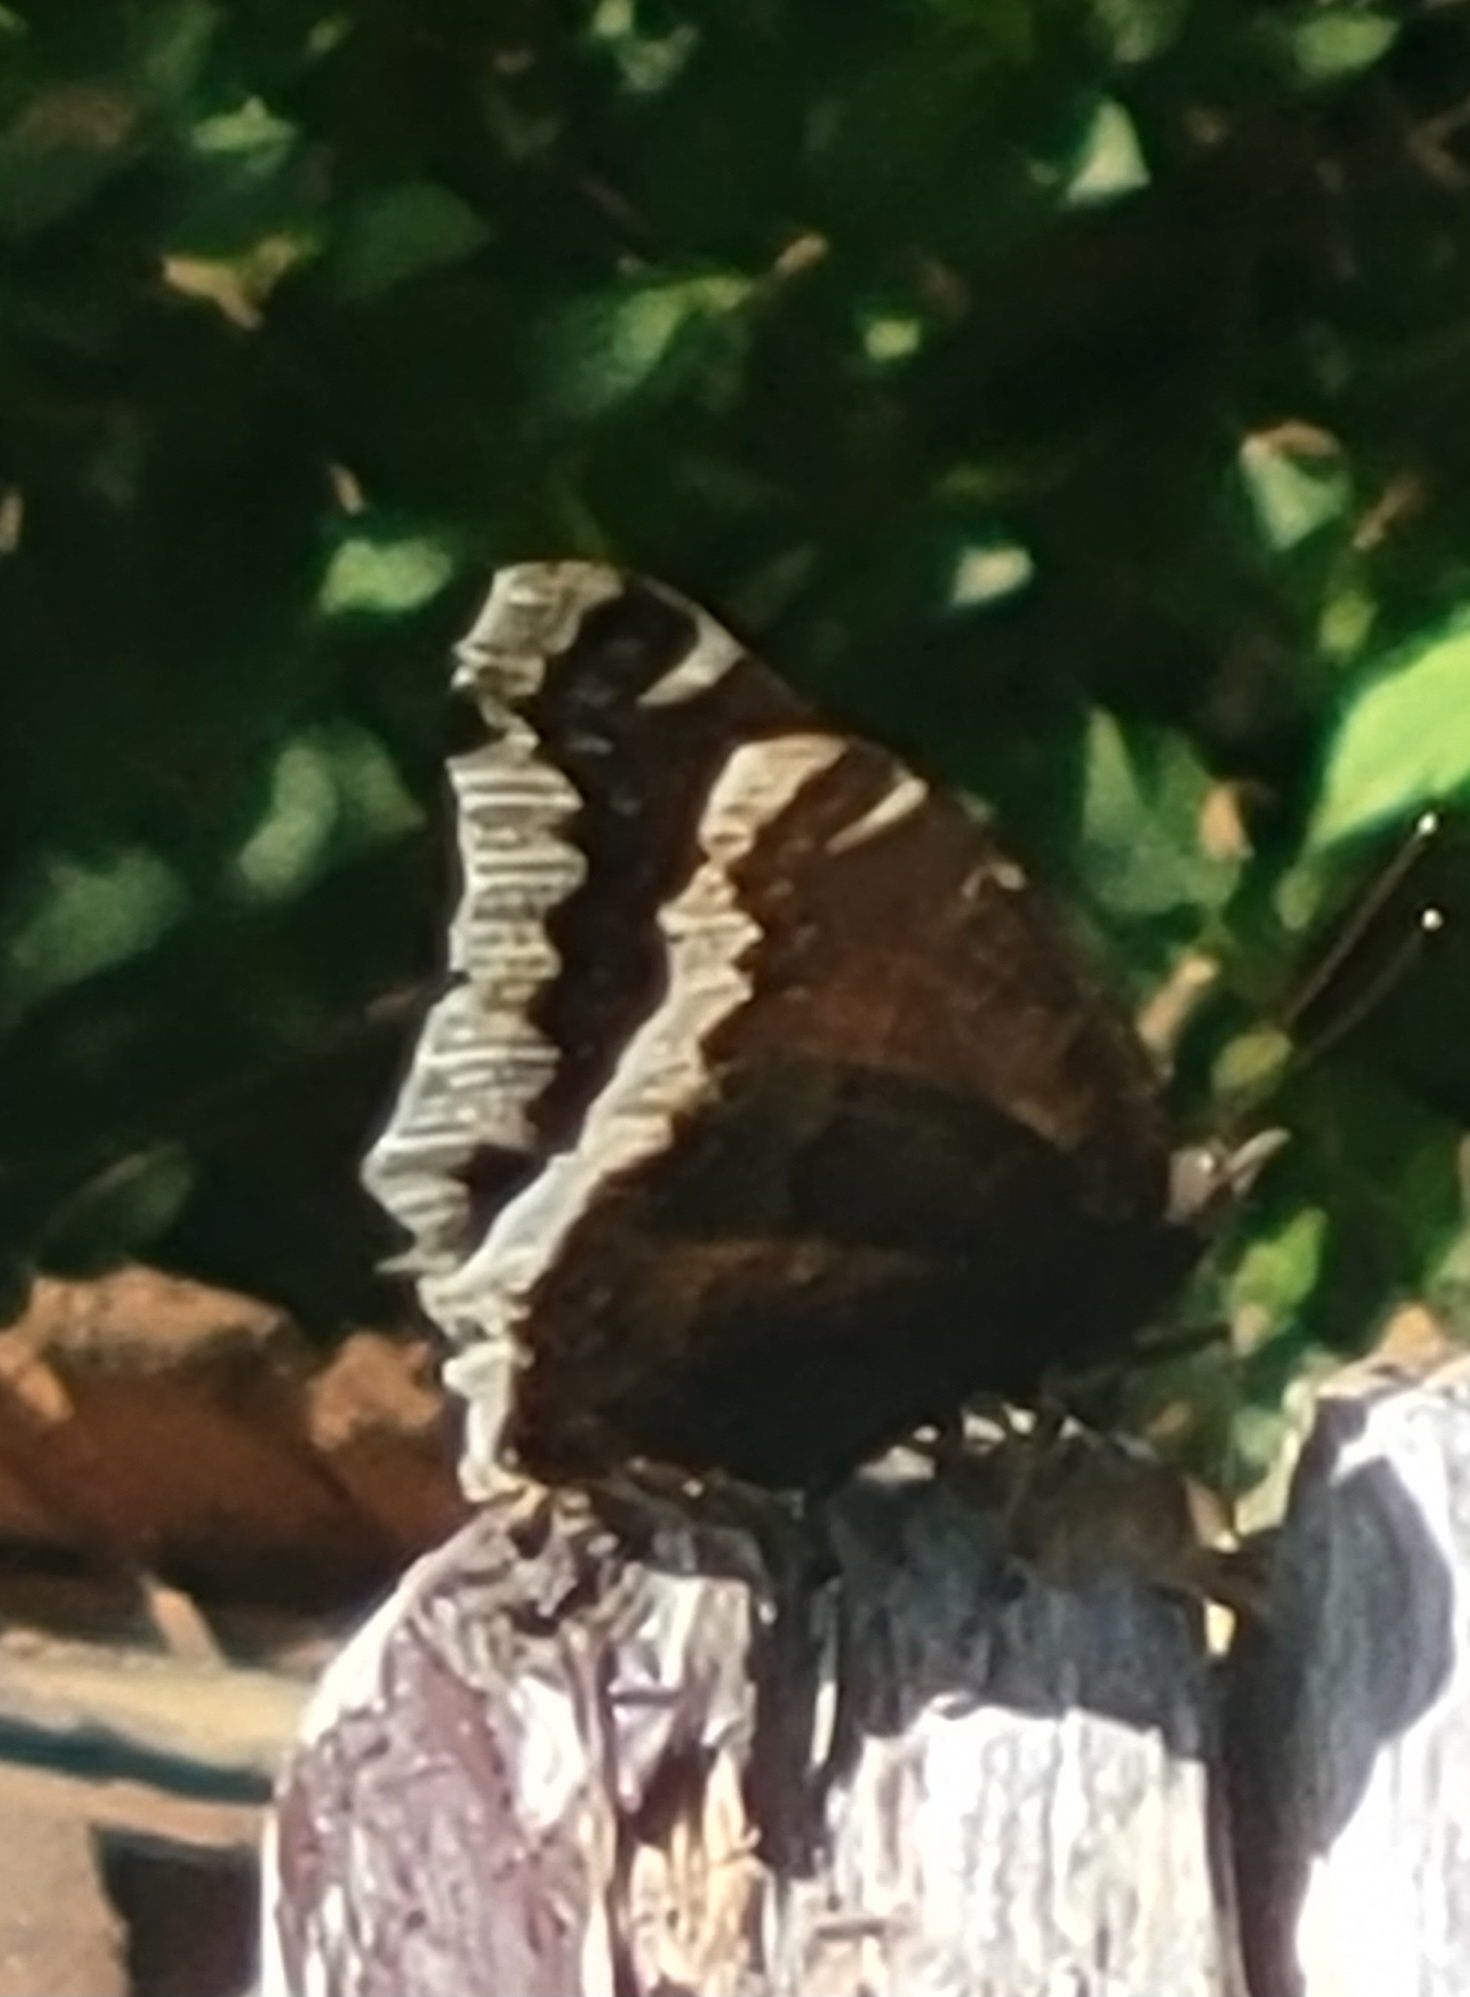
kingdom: Animalia
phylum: Arthropoda
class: Insecta
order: Lepidoptera
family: Nymphalidae
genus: Nymphalis
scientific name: Nymphalis antiopa
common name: Camberwell beauty
